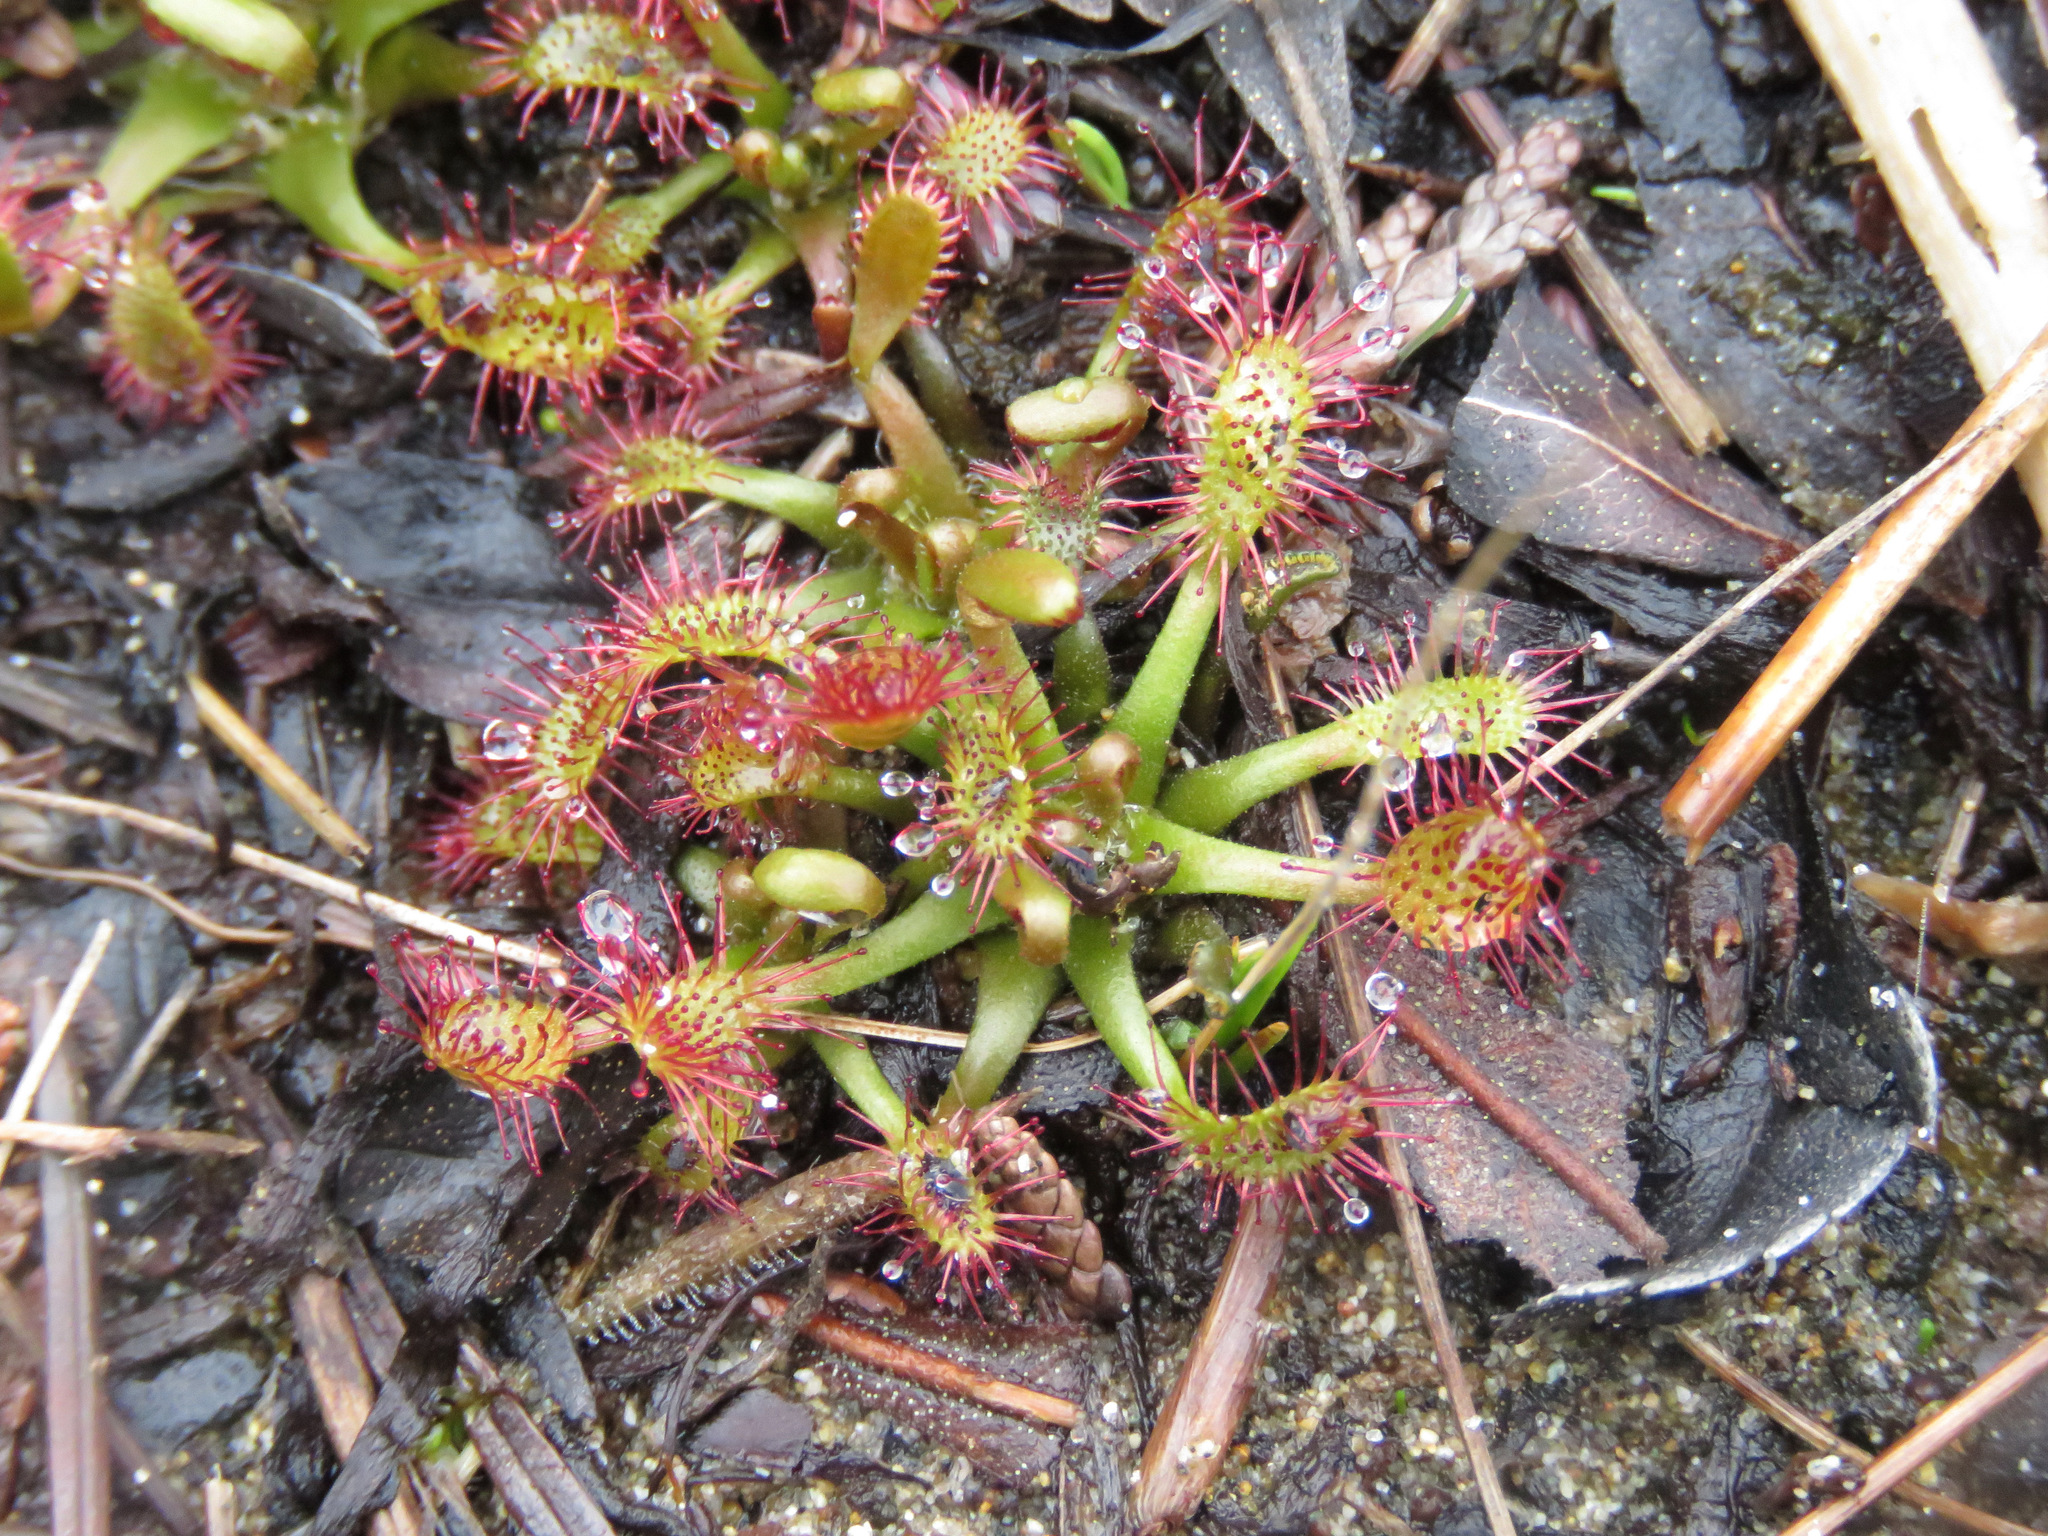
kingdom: Plantae
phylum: Tracheophyta
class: Magnoliopsida
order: Caryophyllales
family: Droseraceae
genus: Drosera
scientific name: Drosera anglica
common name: Great sundew
